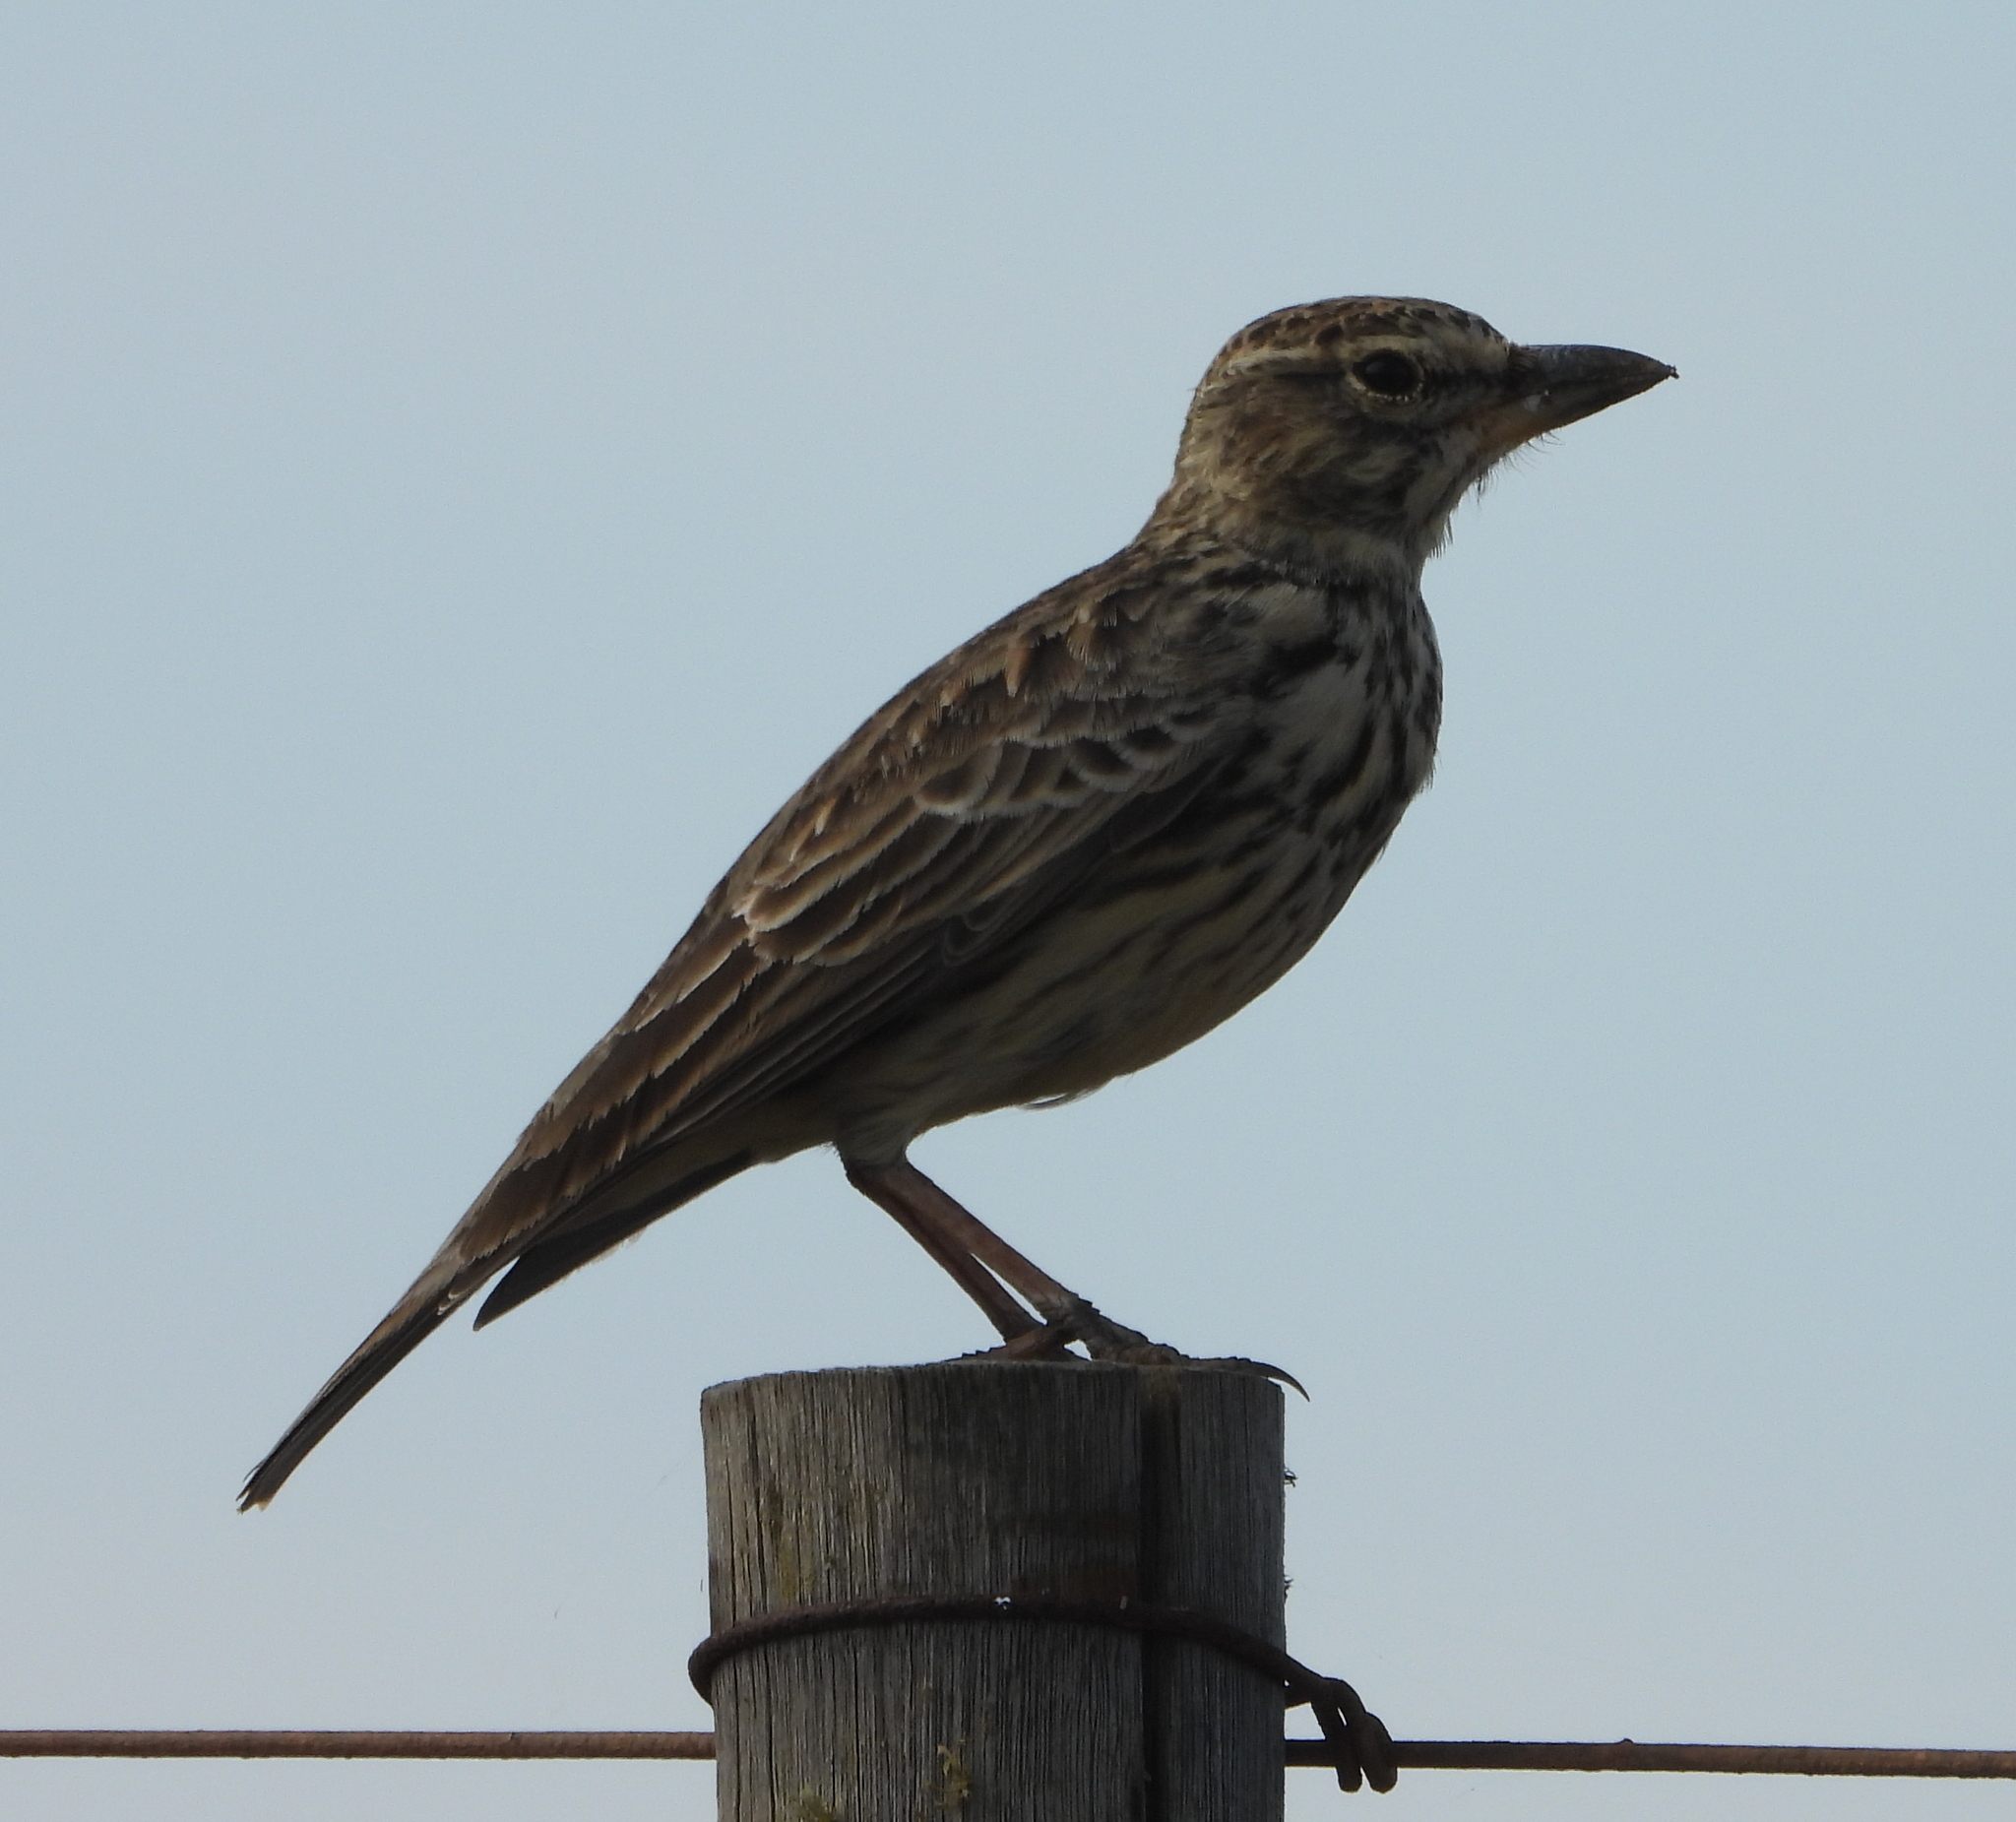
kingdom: Animalia
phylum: Chordata
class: Aves
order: Passeriformes
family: Alaudidae
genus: Galerida
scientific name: Galerida magnirostris
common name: Large-billed lark
